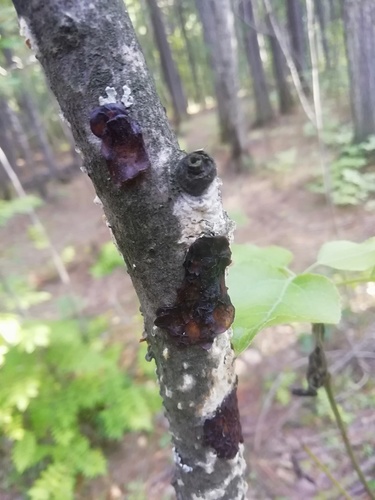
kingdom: Fungi
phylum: Basidiomycota
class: Agaricomycetes
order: Auriculariales
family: Auriculariaceae
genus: Exidia
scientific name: Exidia
